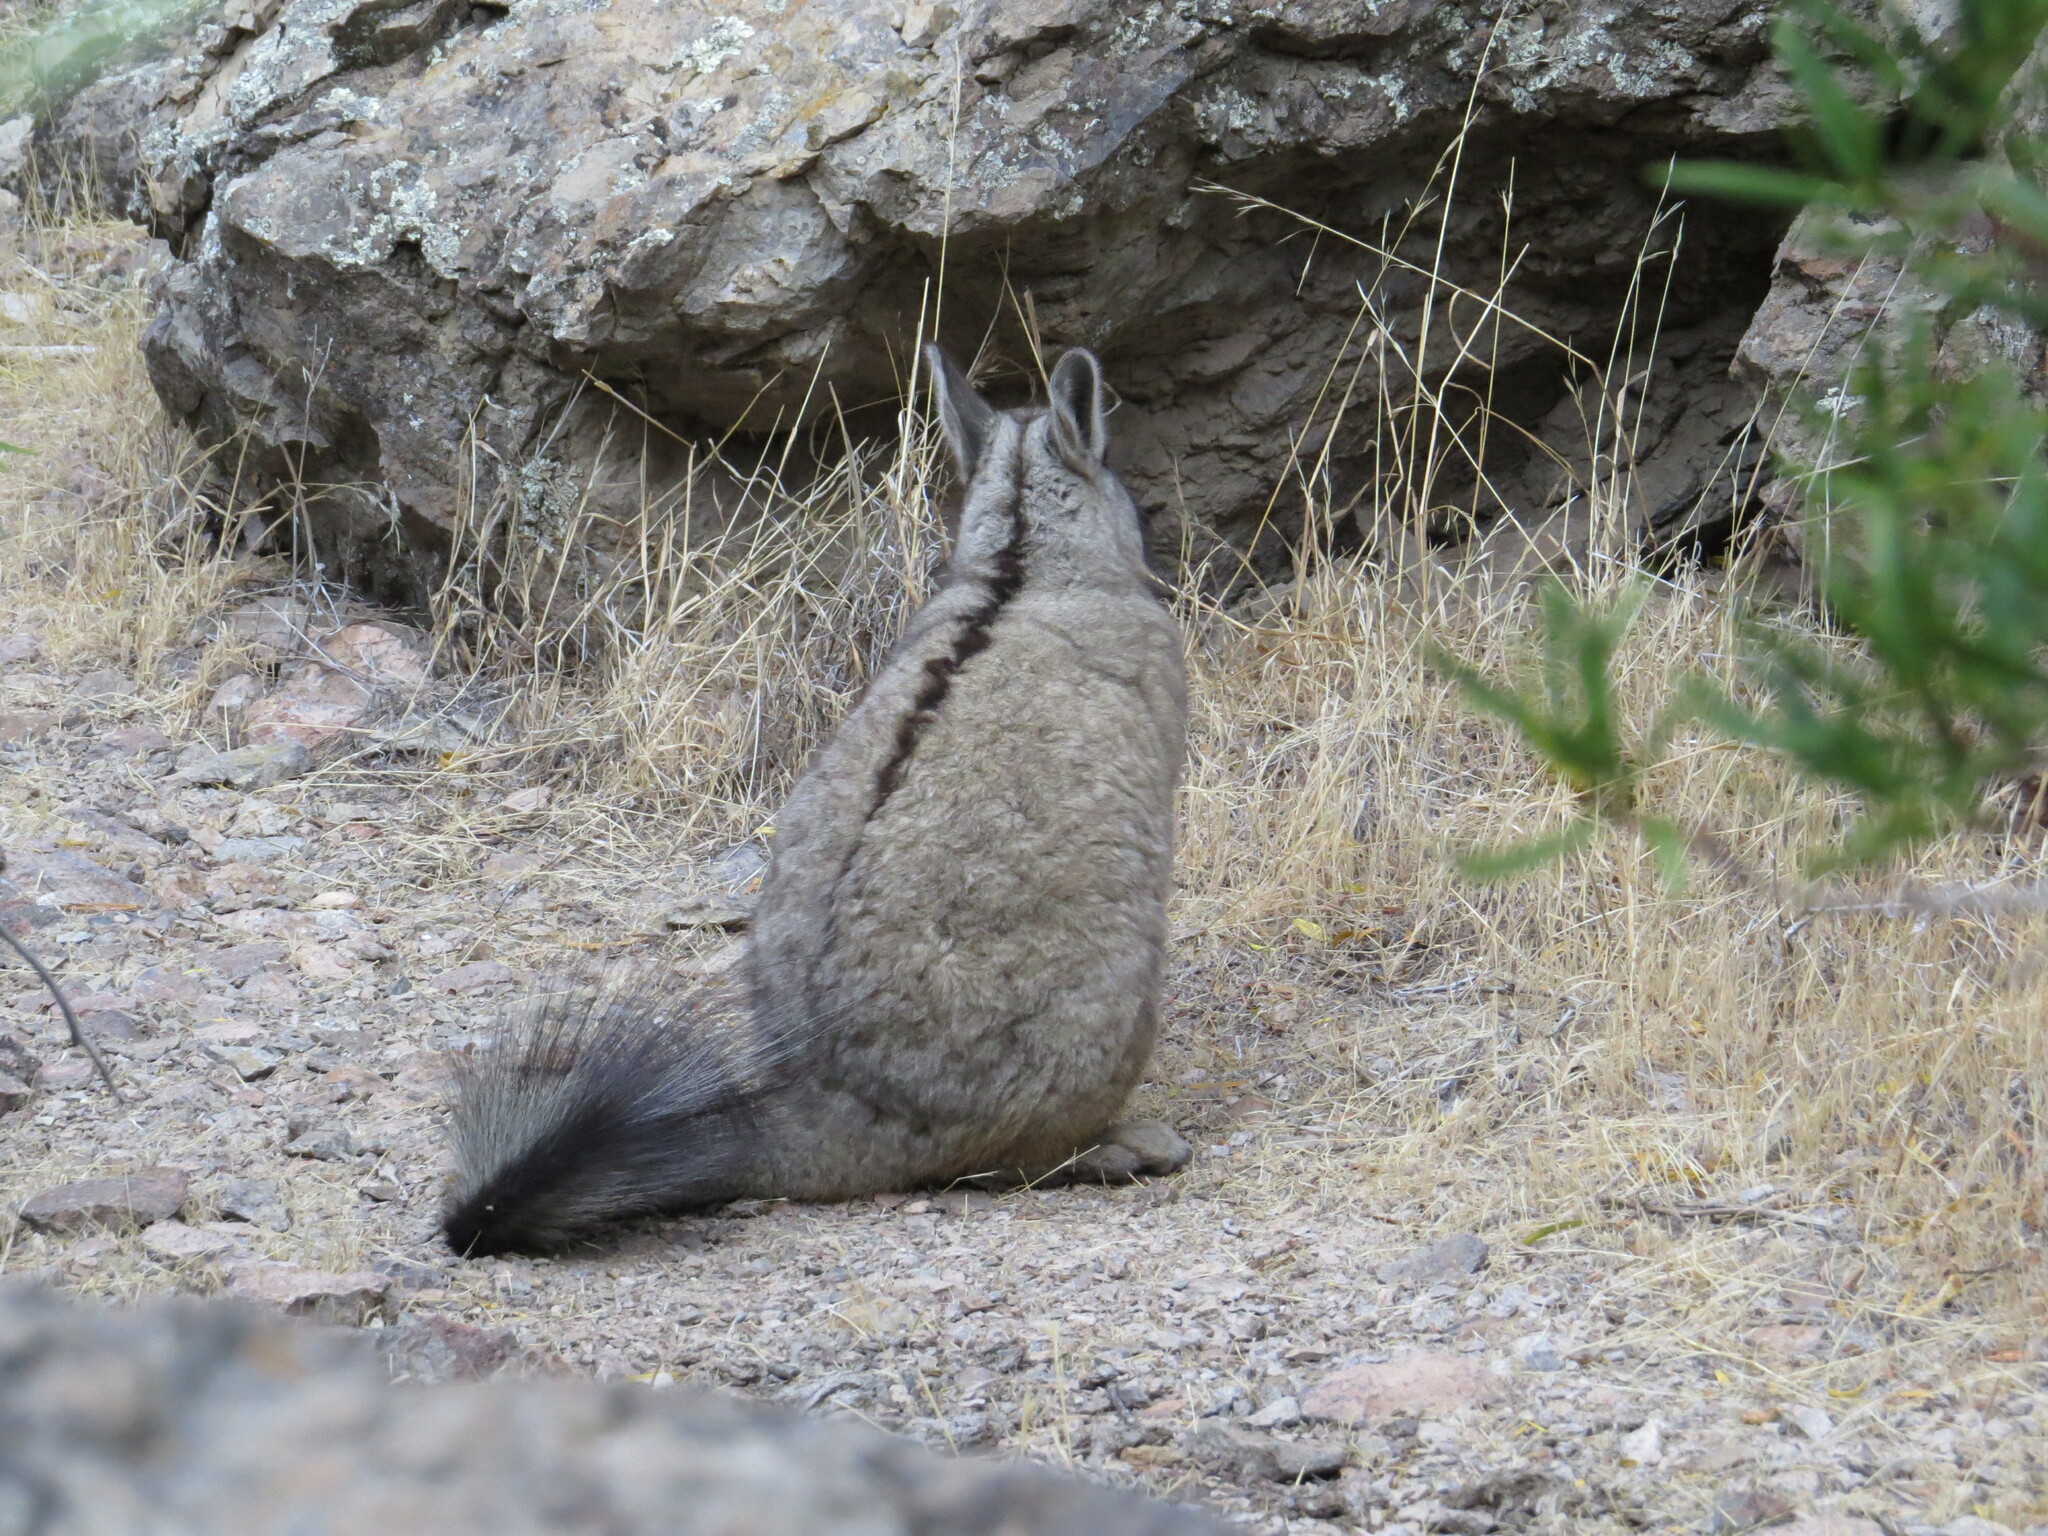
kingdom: Animalia
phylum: Chordata
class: Mammalia
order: Rodentia
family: Chinchillidae
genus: Lagidium
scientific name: Lagidium viscacia
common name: Southern viscacha
